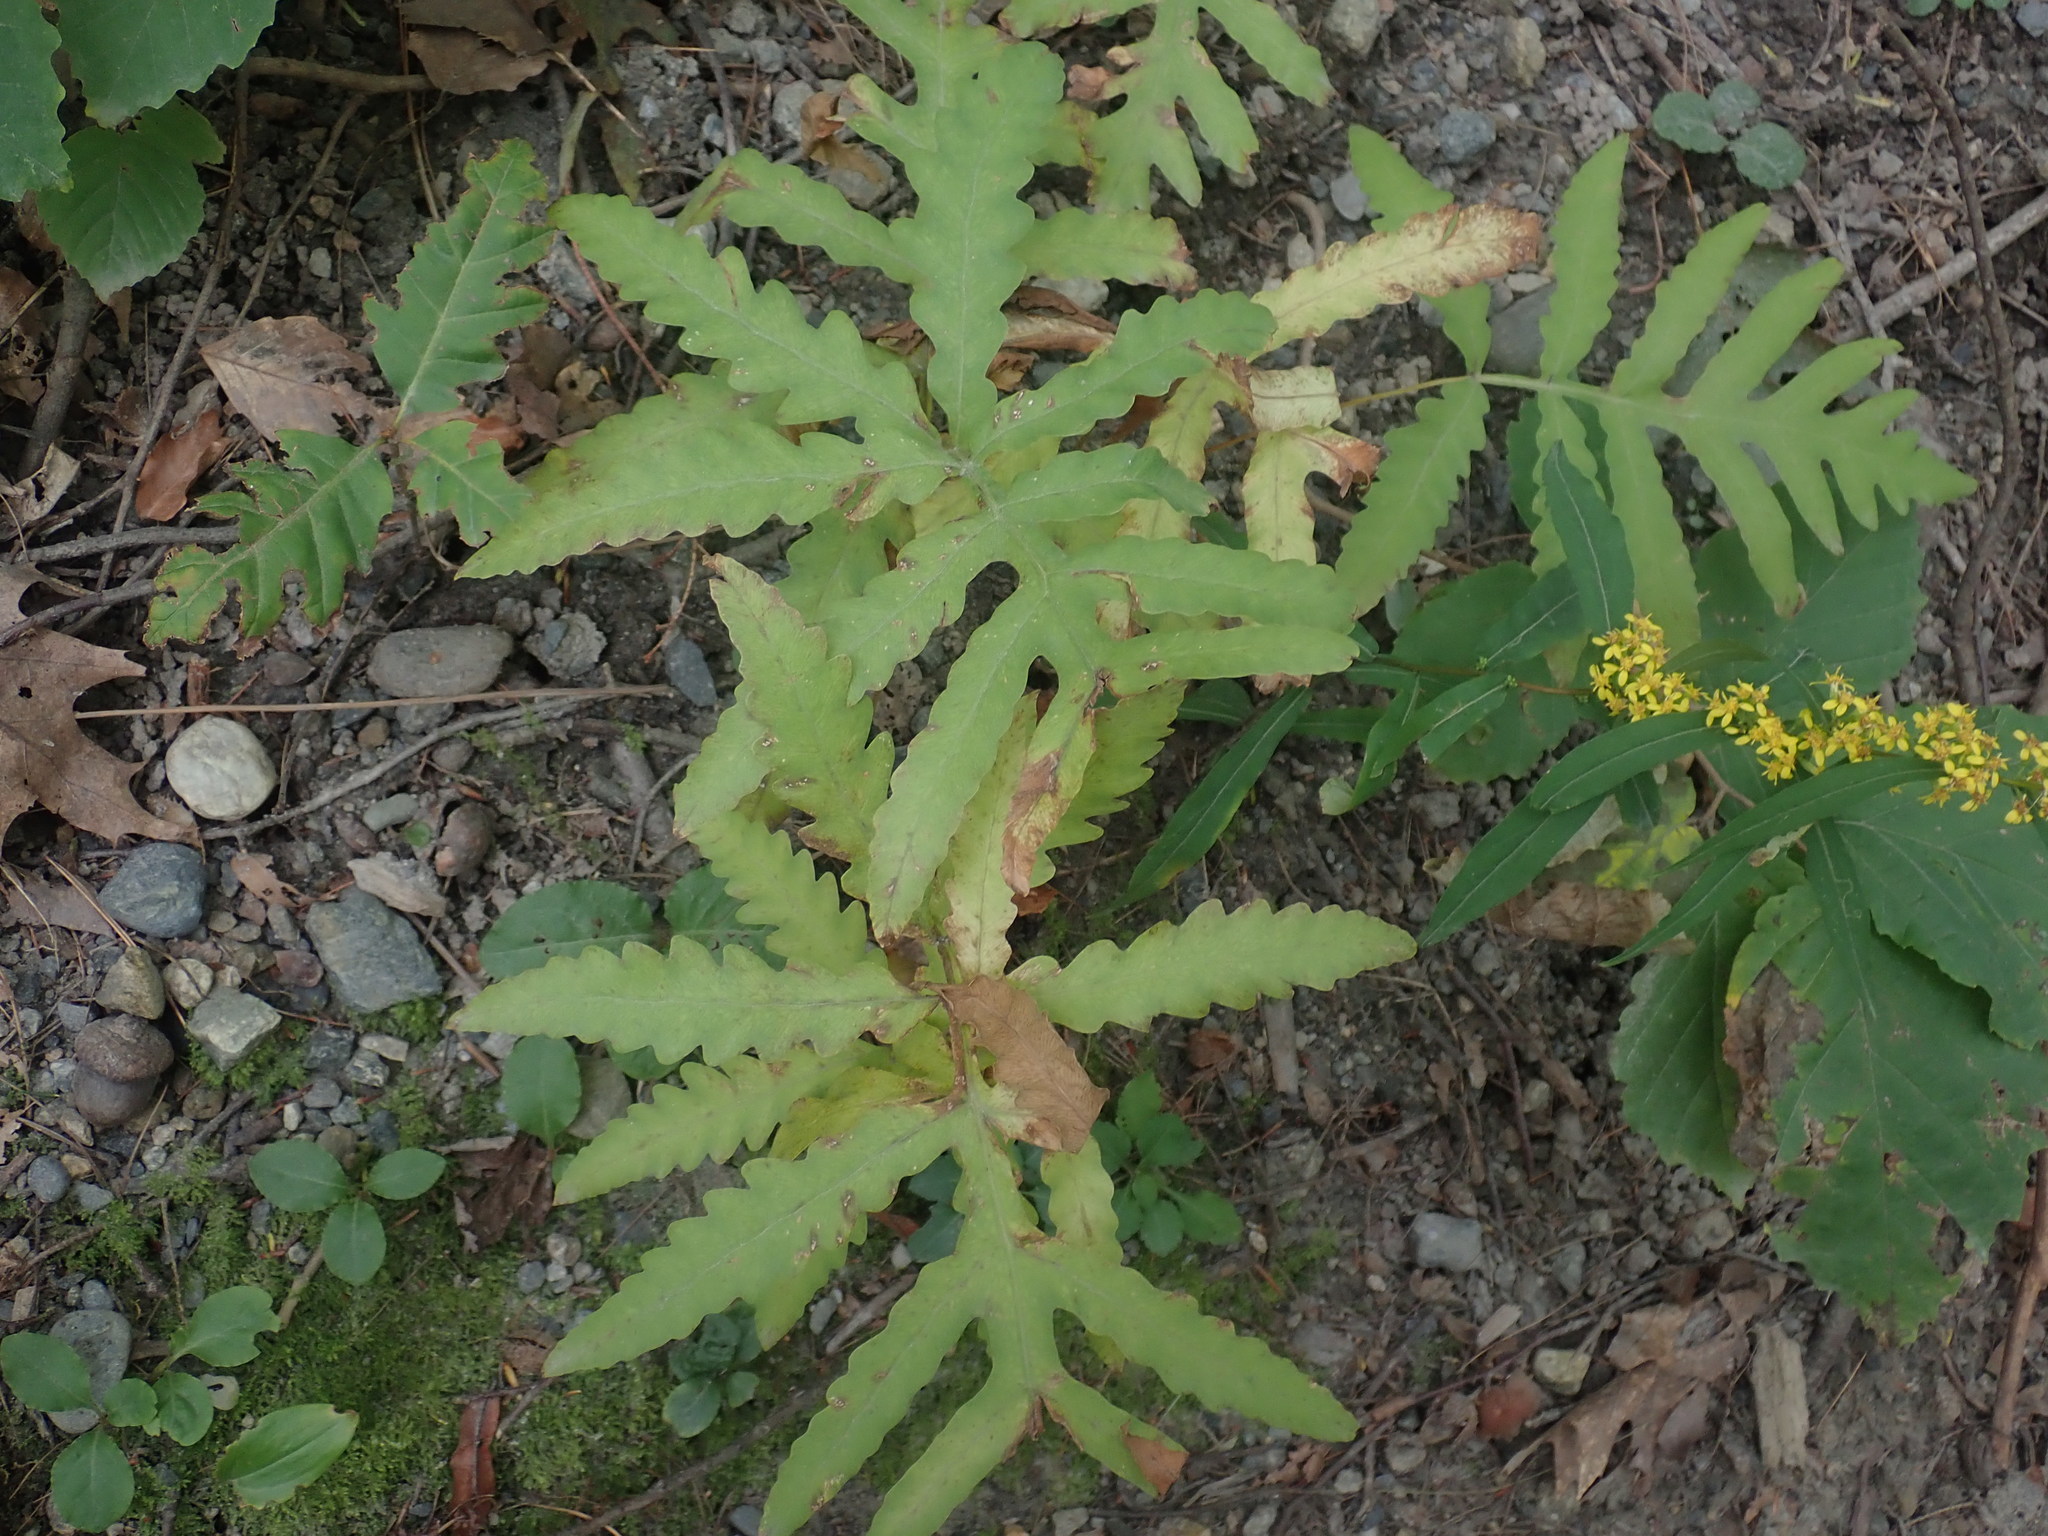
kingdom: Plantae
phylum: Tracheophyta
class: Polypodiopsida
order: Polypodiales
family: Onocleaceae
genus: Onoclea
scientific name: Onoclea sensibilis
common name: Sensitive fern
